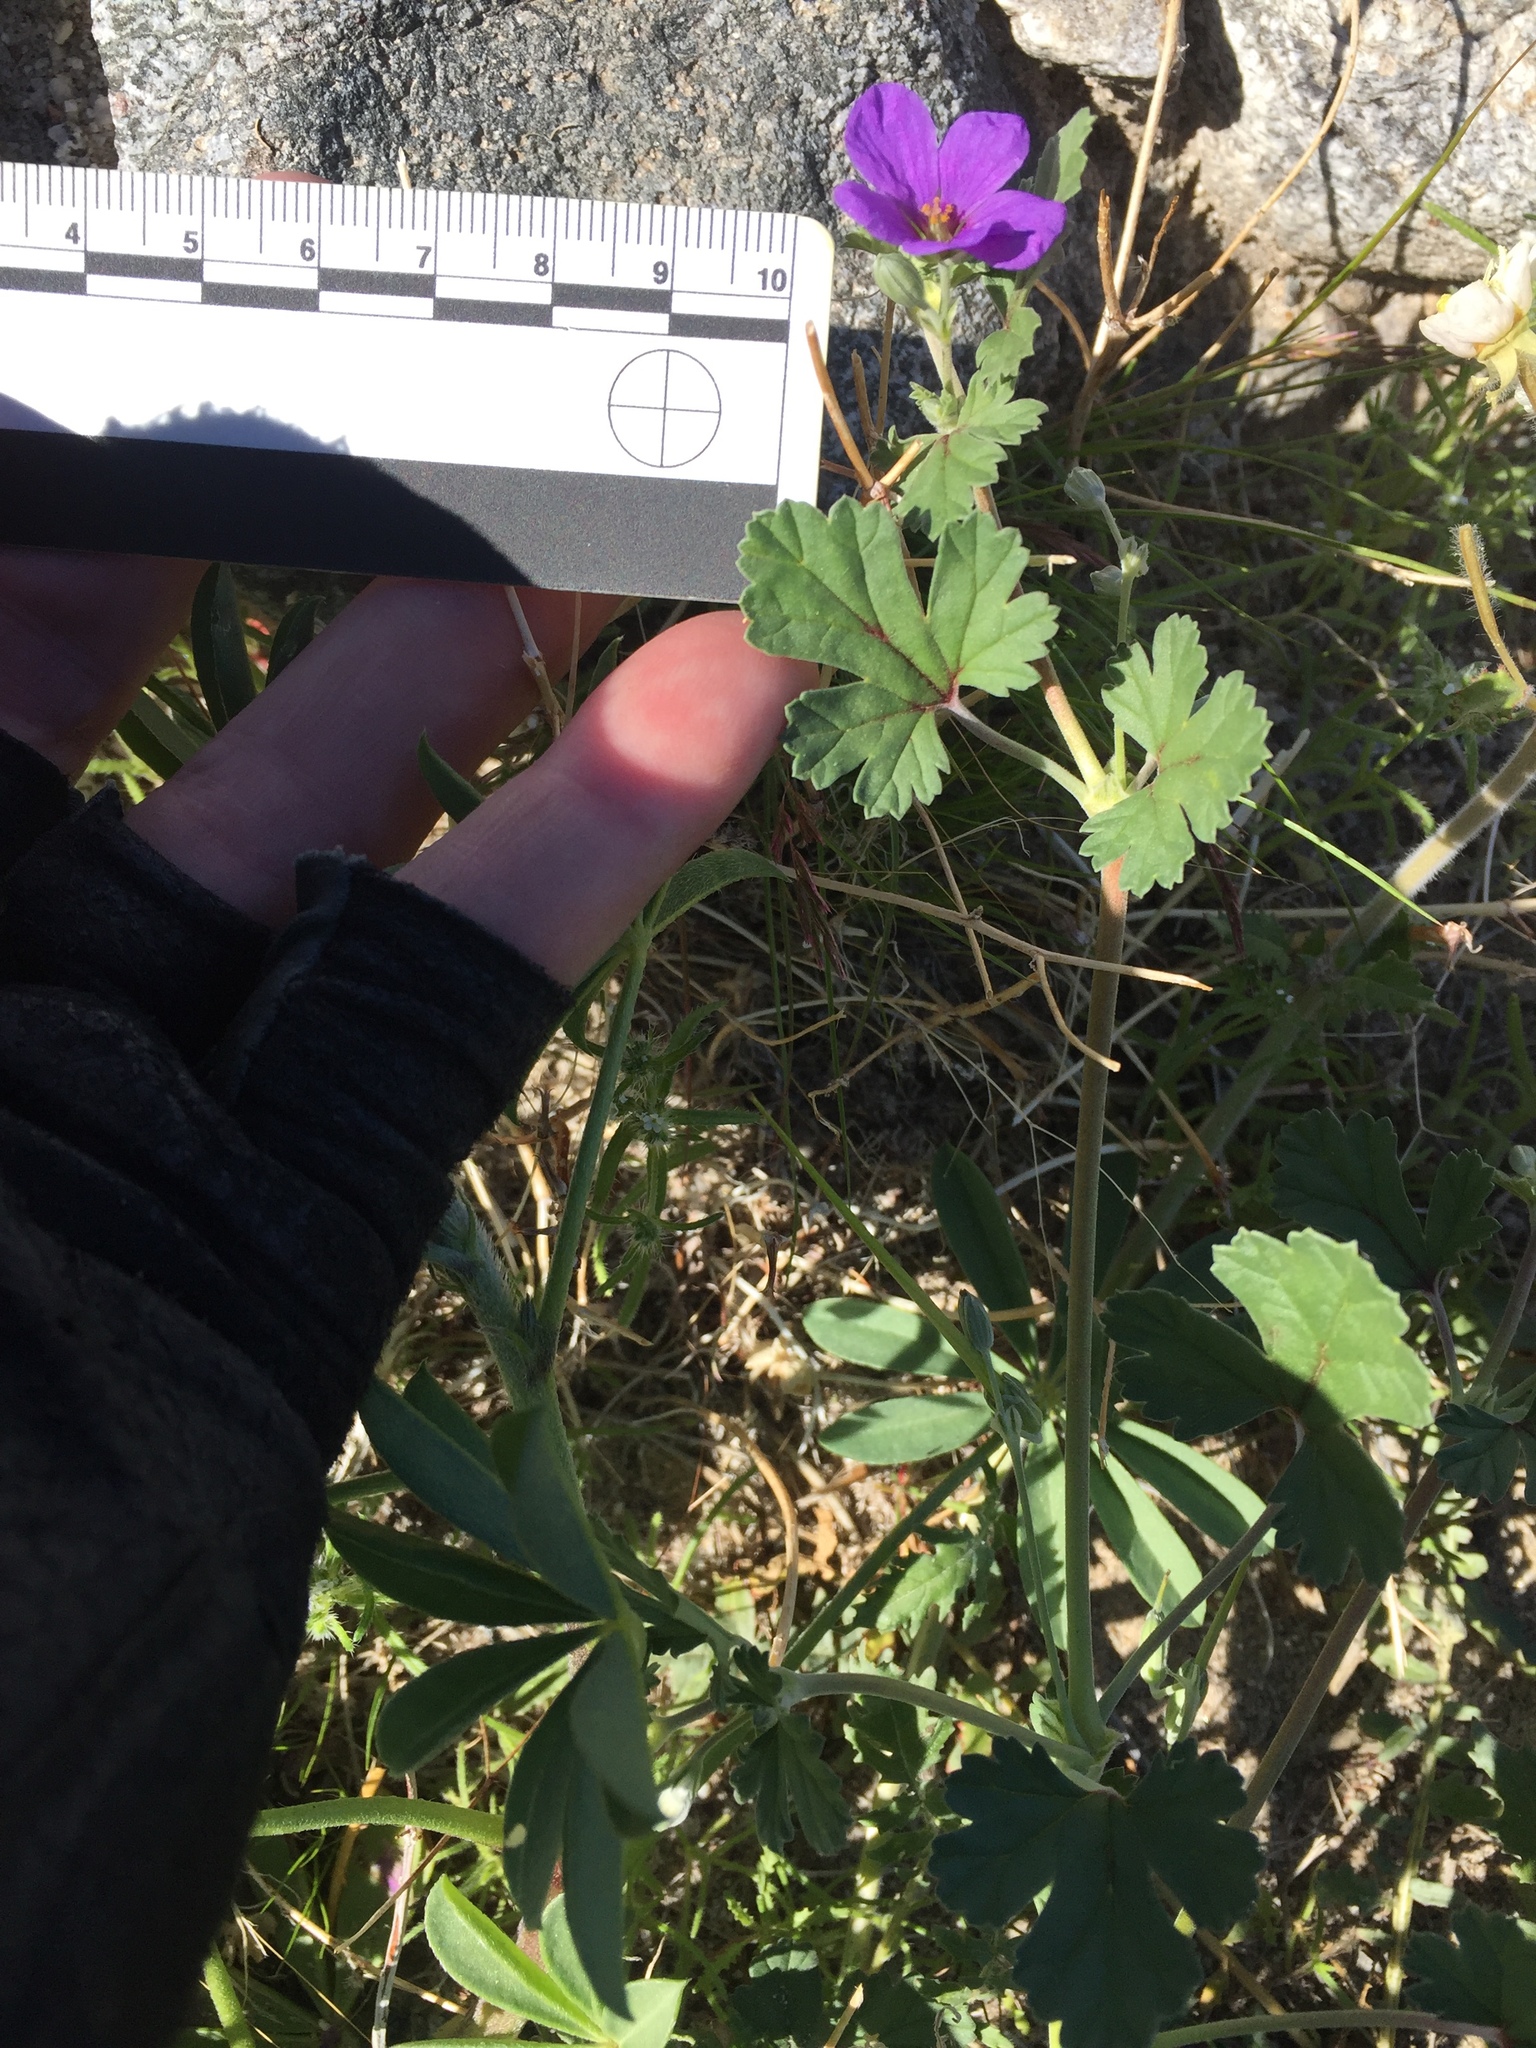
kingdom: Plantae
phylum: Tracheophyta
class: Magnoliopsida
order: Geraniales
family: Geraniaceae
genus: Erodium
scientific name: Erodium texanum
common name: Texas stork's-bill
